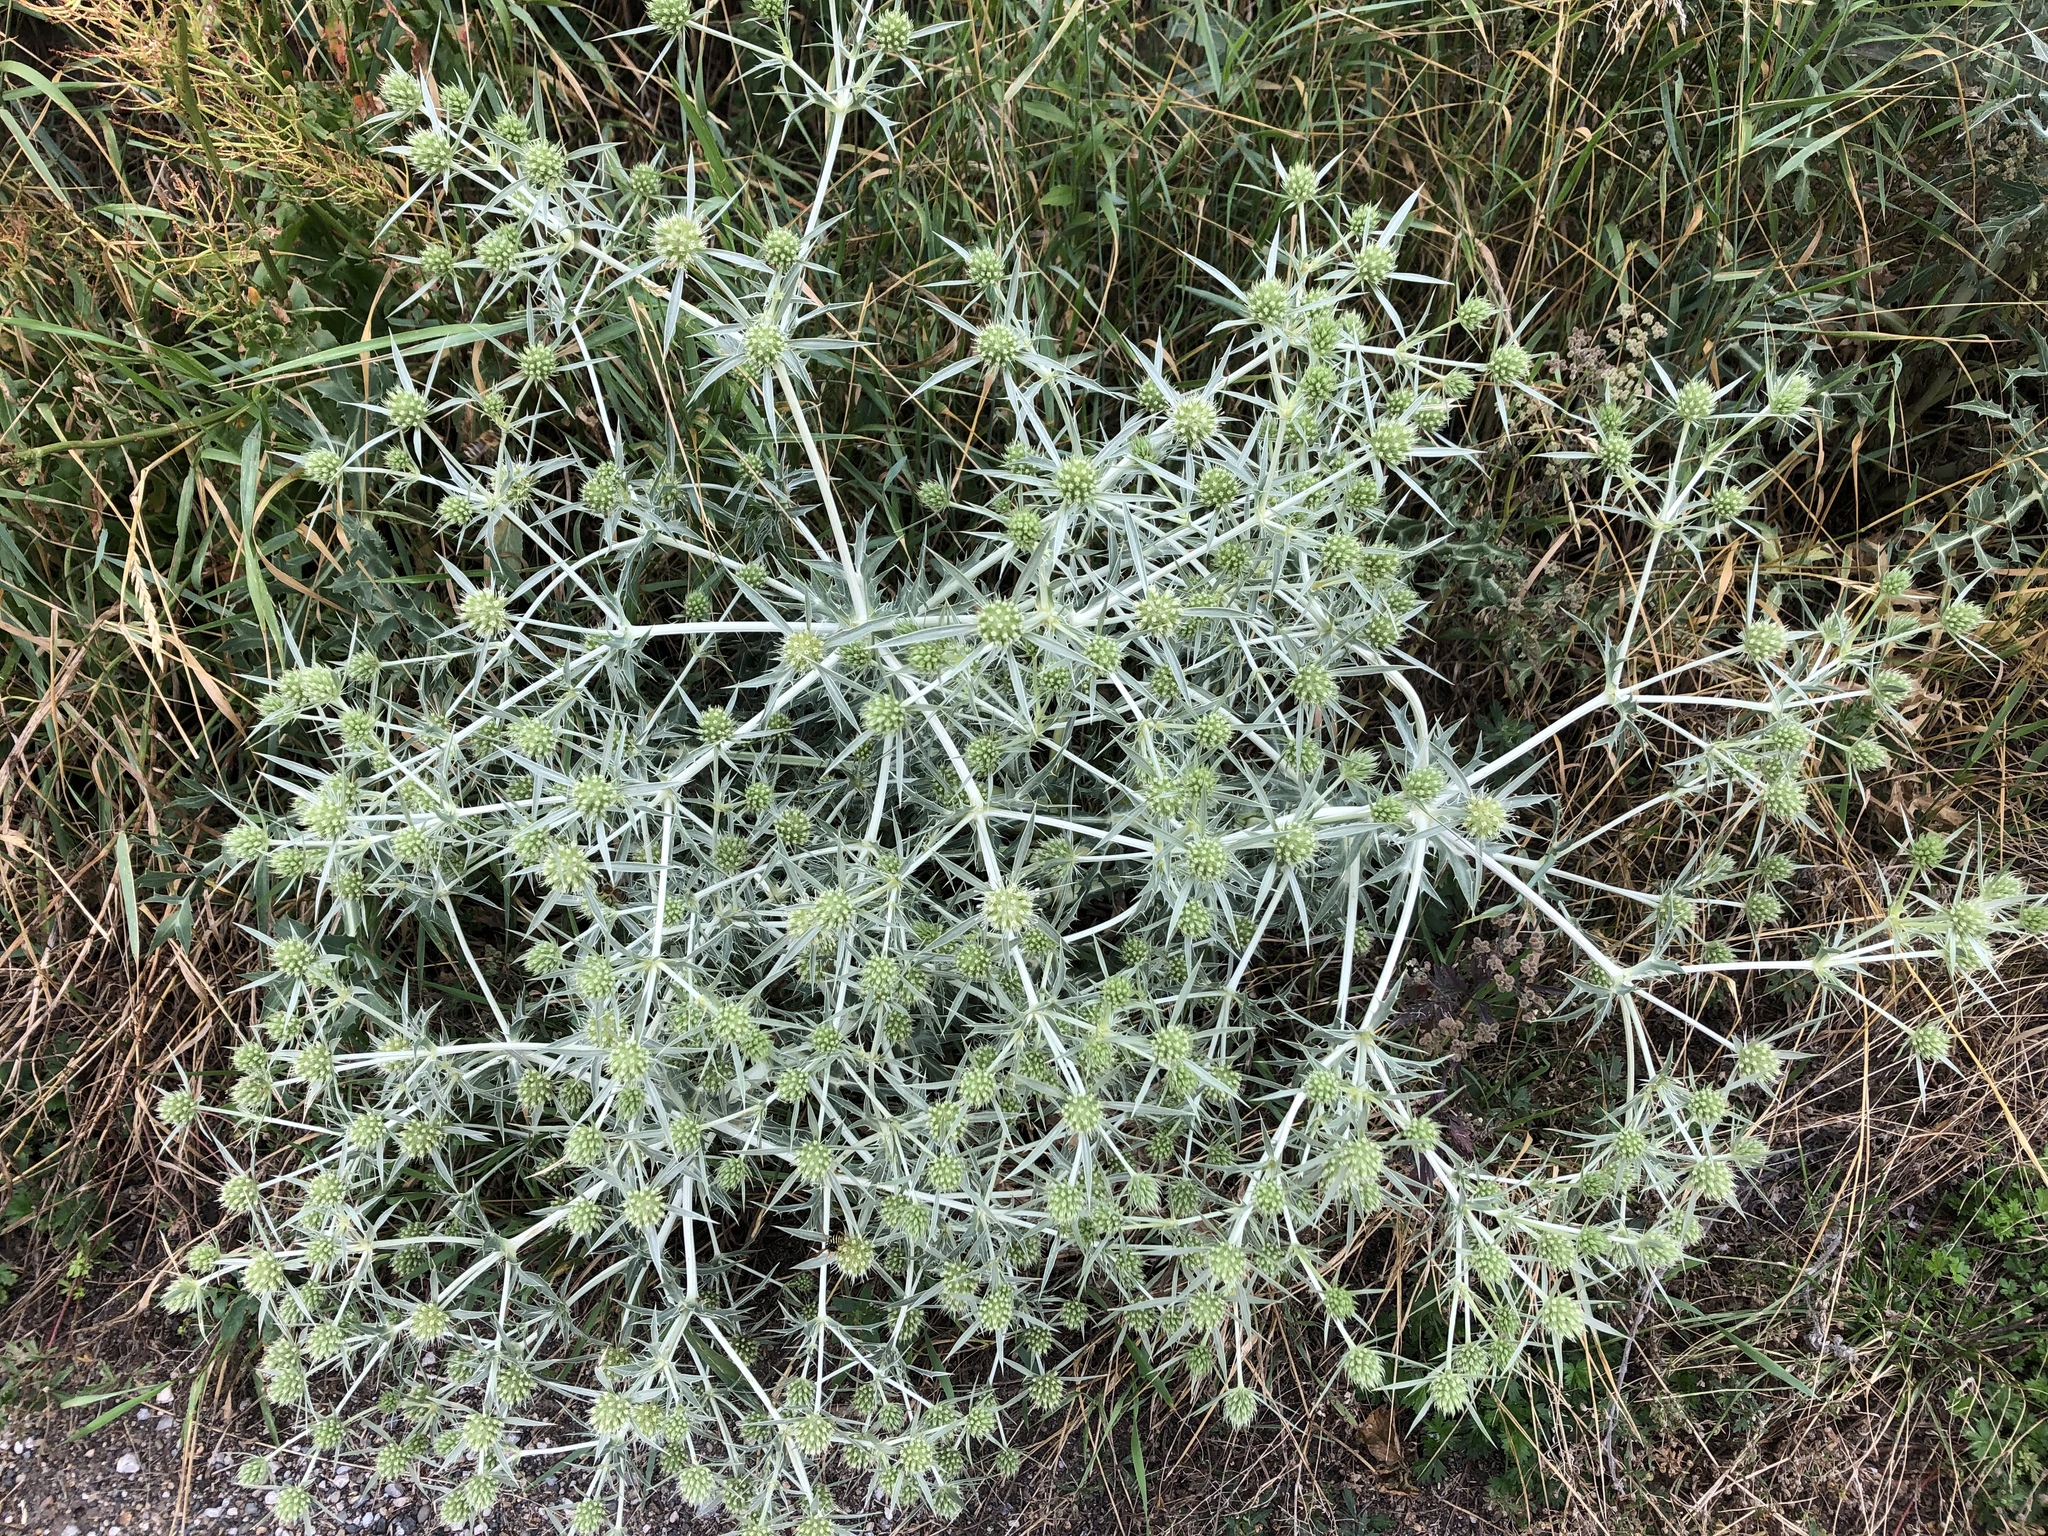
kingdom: Plantae
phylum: Tracheophyta
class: Magnoliopsida
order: Apiales
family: Apiaceae
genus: Eryngium
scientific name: Eryngium campestre
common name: Field eryngo
